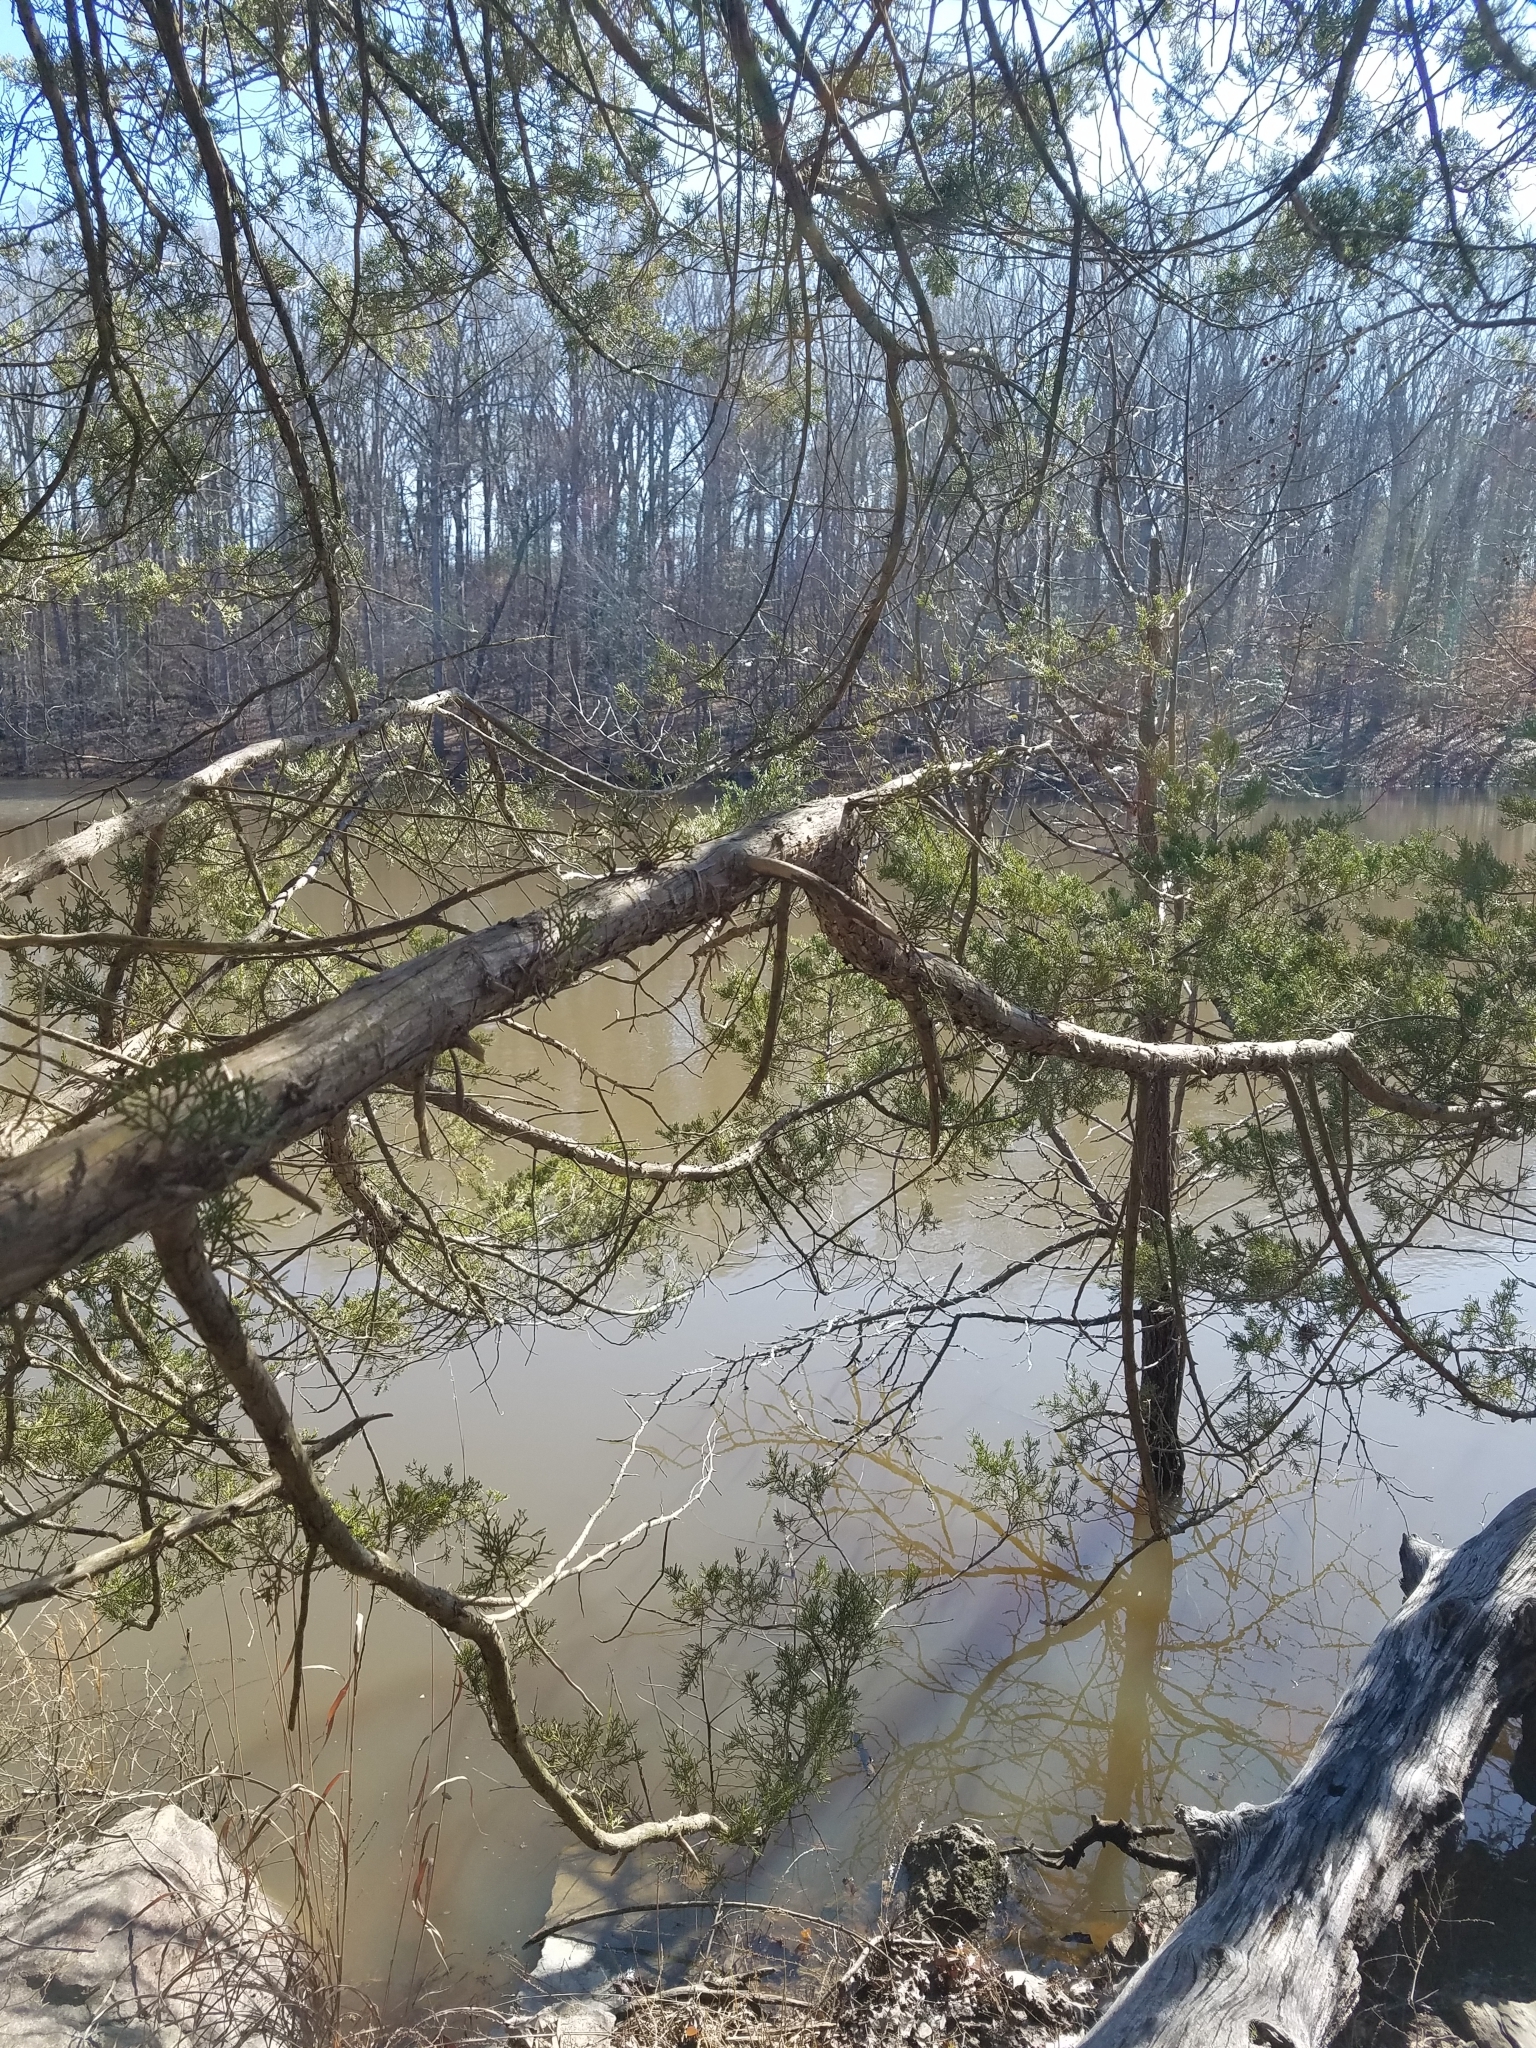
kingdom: Plantae
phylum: Tracheophyta
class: Pinopsida
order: Pinales
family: Cupressaceae
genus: Juniperus
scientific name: Juniperus virginiana
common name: Red juniper
